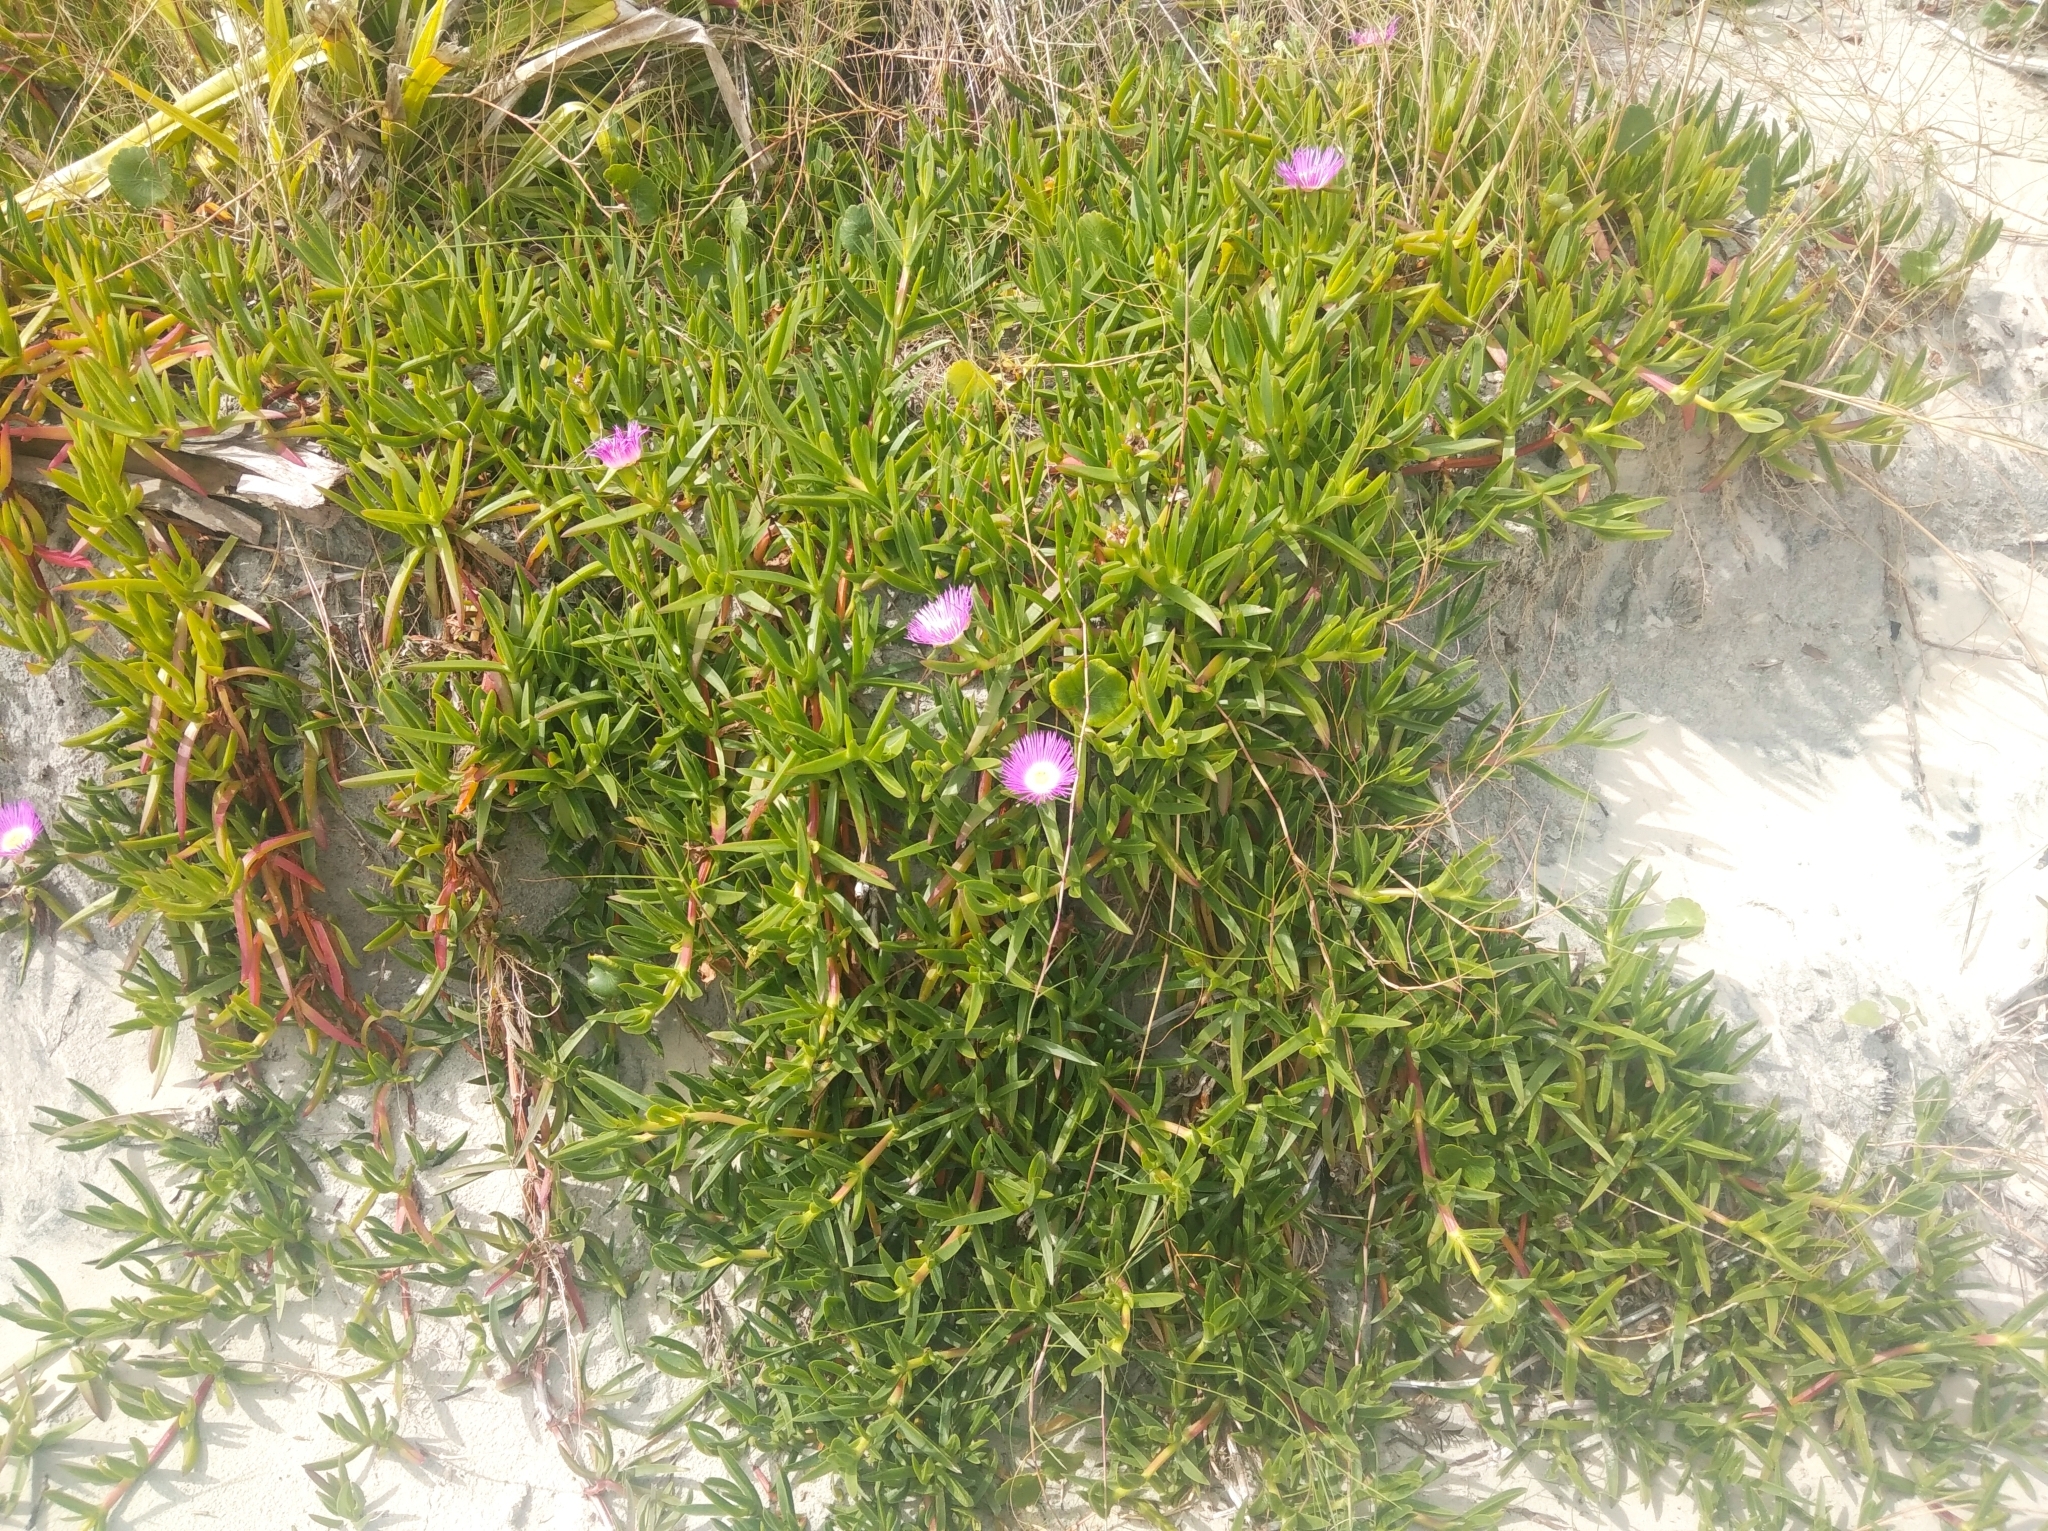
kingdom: Plantae
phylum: Tracheophyta
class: Magnoliopsida
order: Caryophyllales
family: Aizoaceae
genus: Carpobrotus
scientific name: Carpobrotus acinaciformis
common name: Sally-my-handsome
